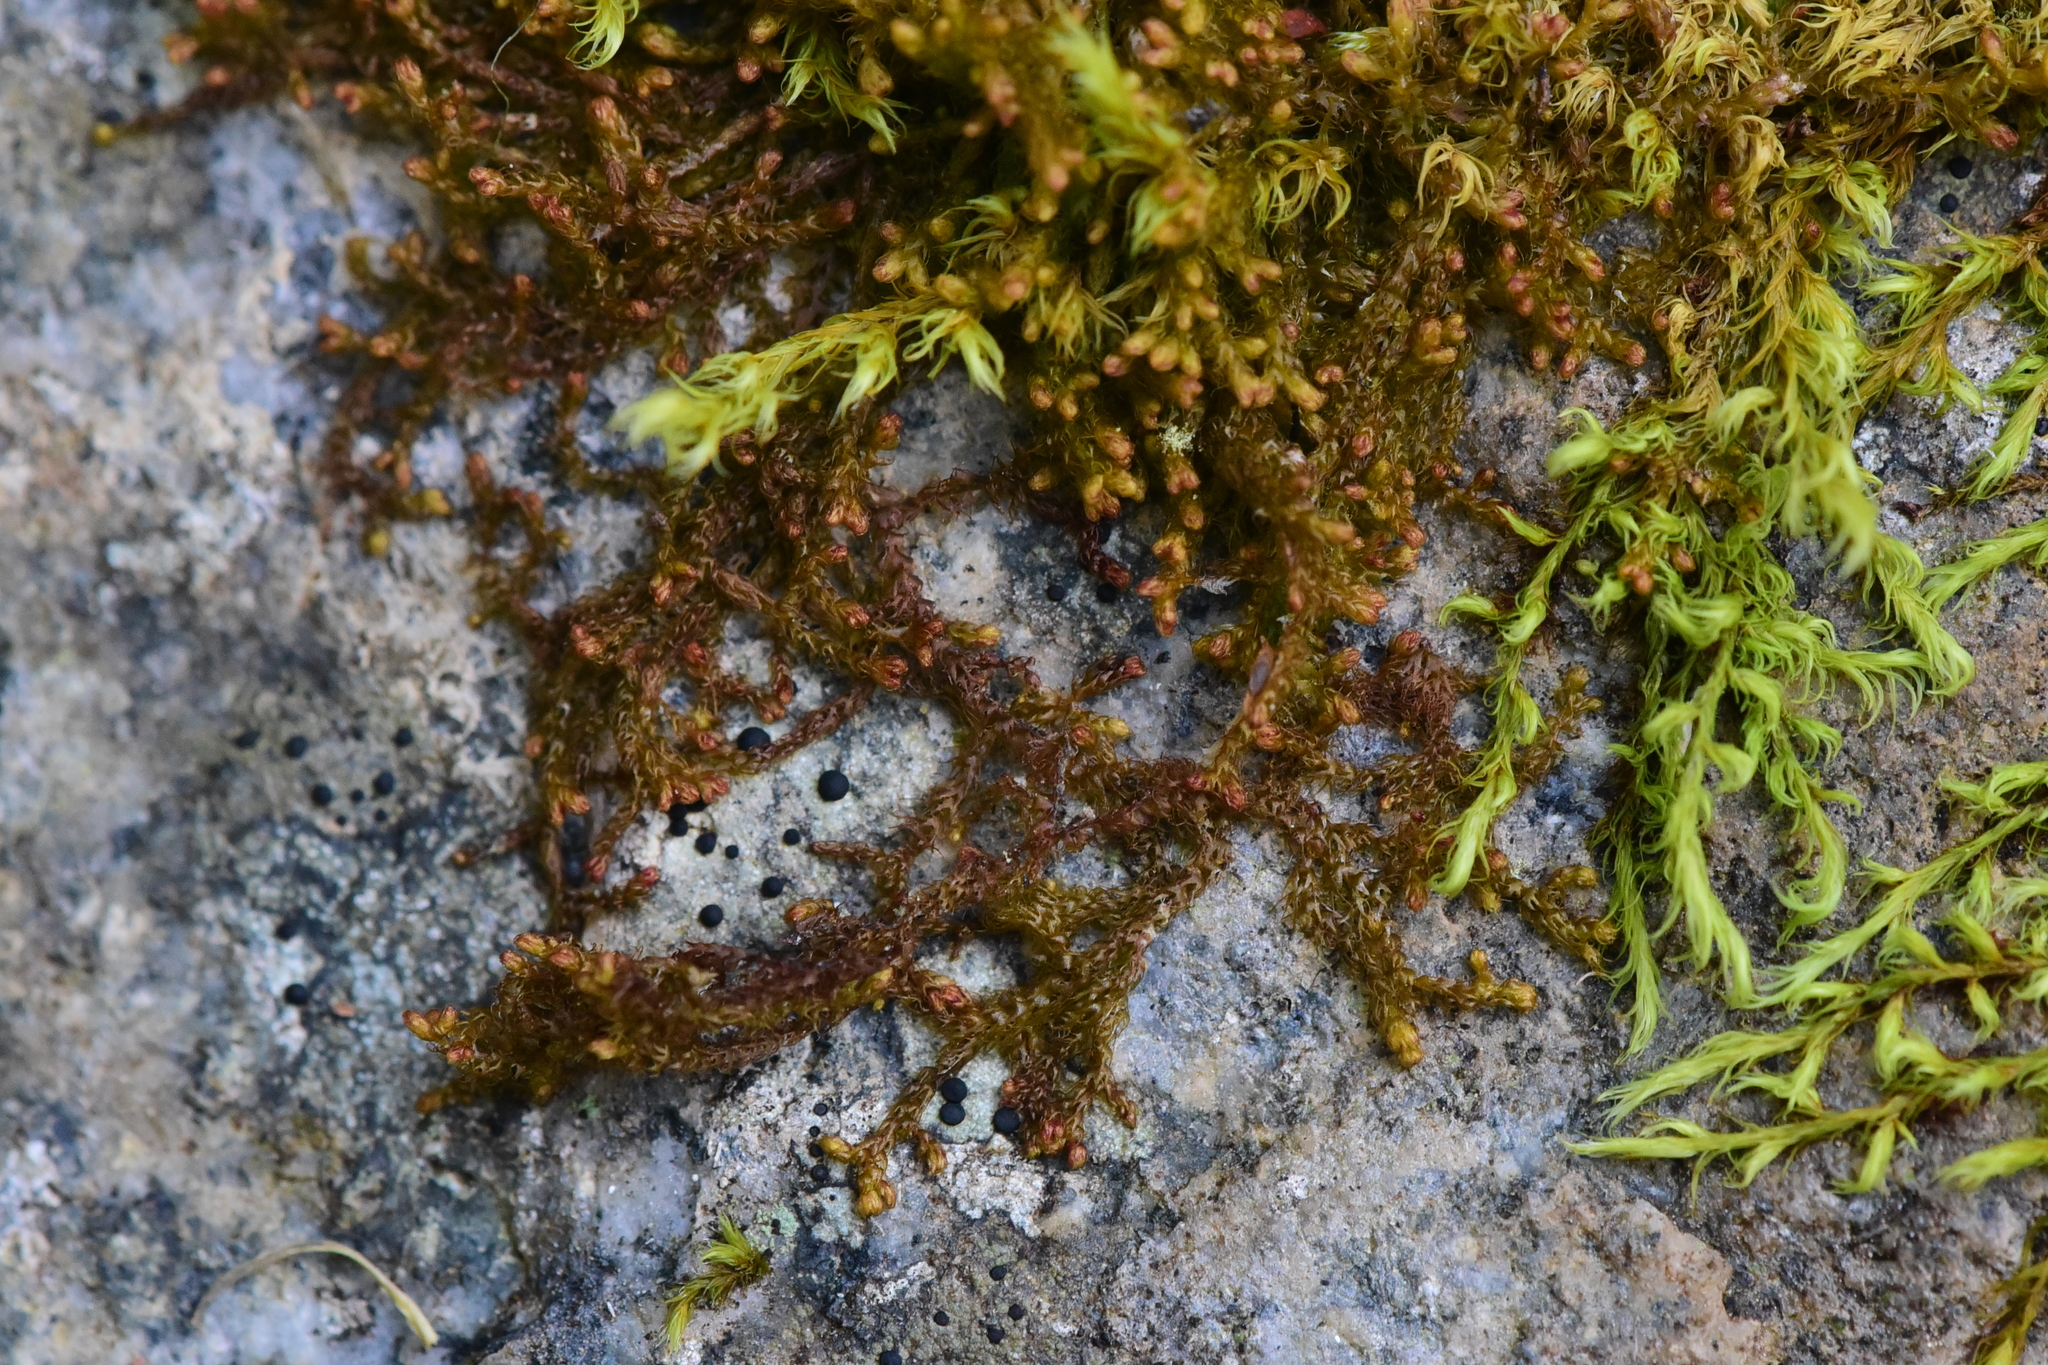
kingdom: Plantae
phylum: Marchantiophyta
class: Jungermanniopsida
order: Ptilidiales
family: Ptilidiaceae
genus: Ptilidium
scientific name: Ptilidium pulcherrimum
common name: Tree fringewort
